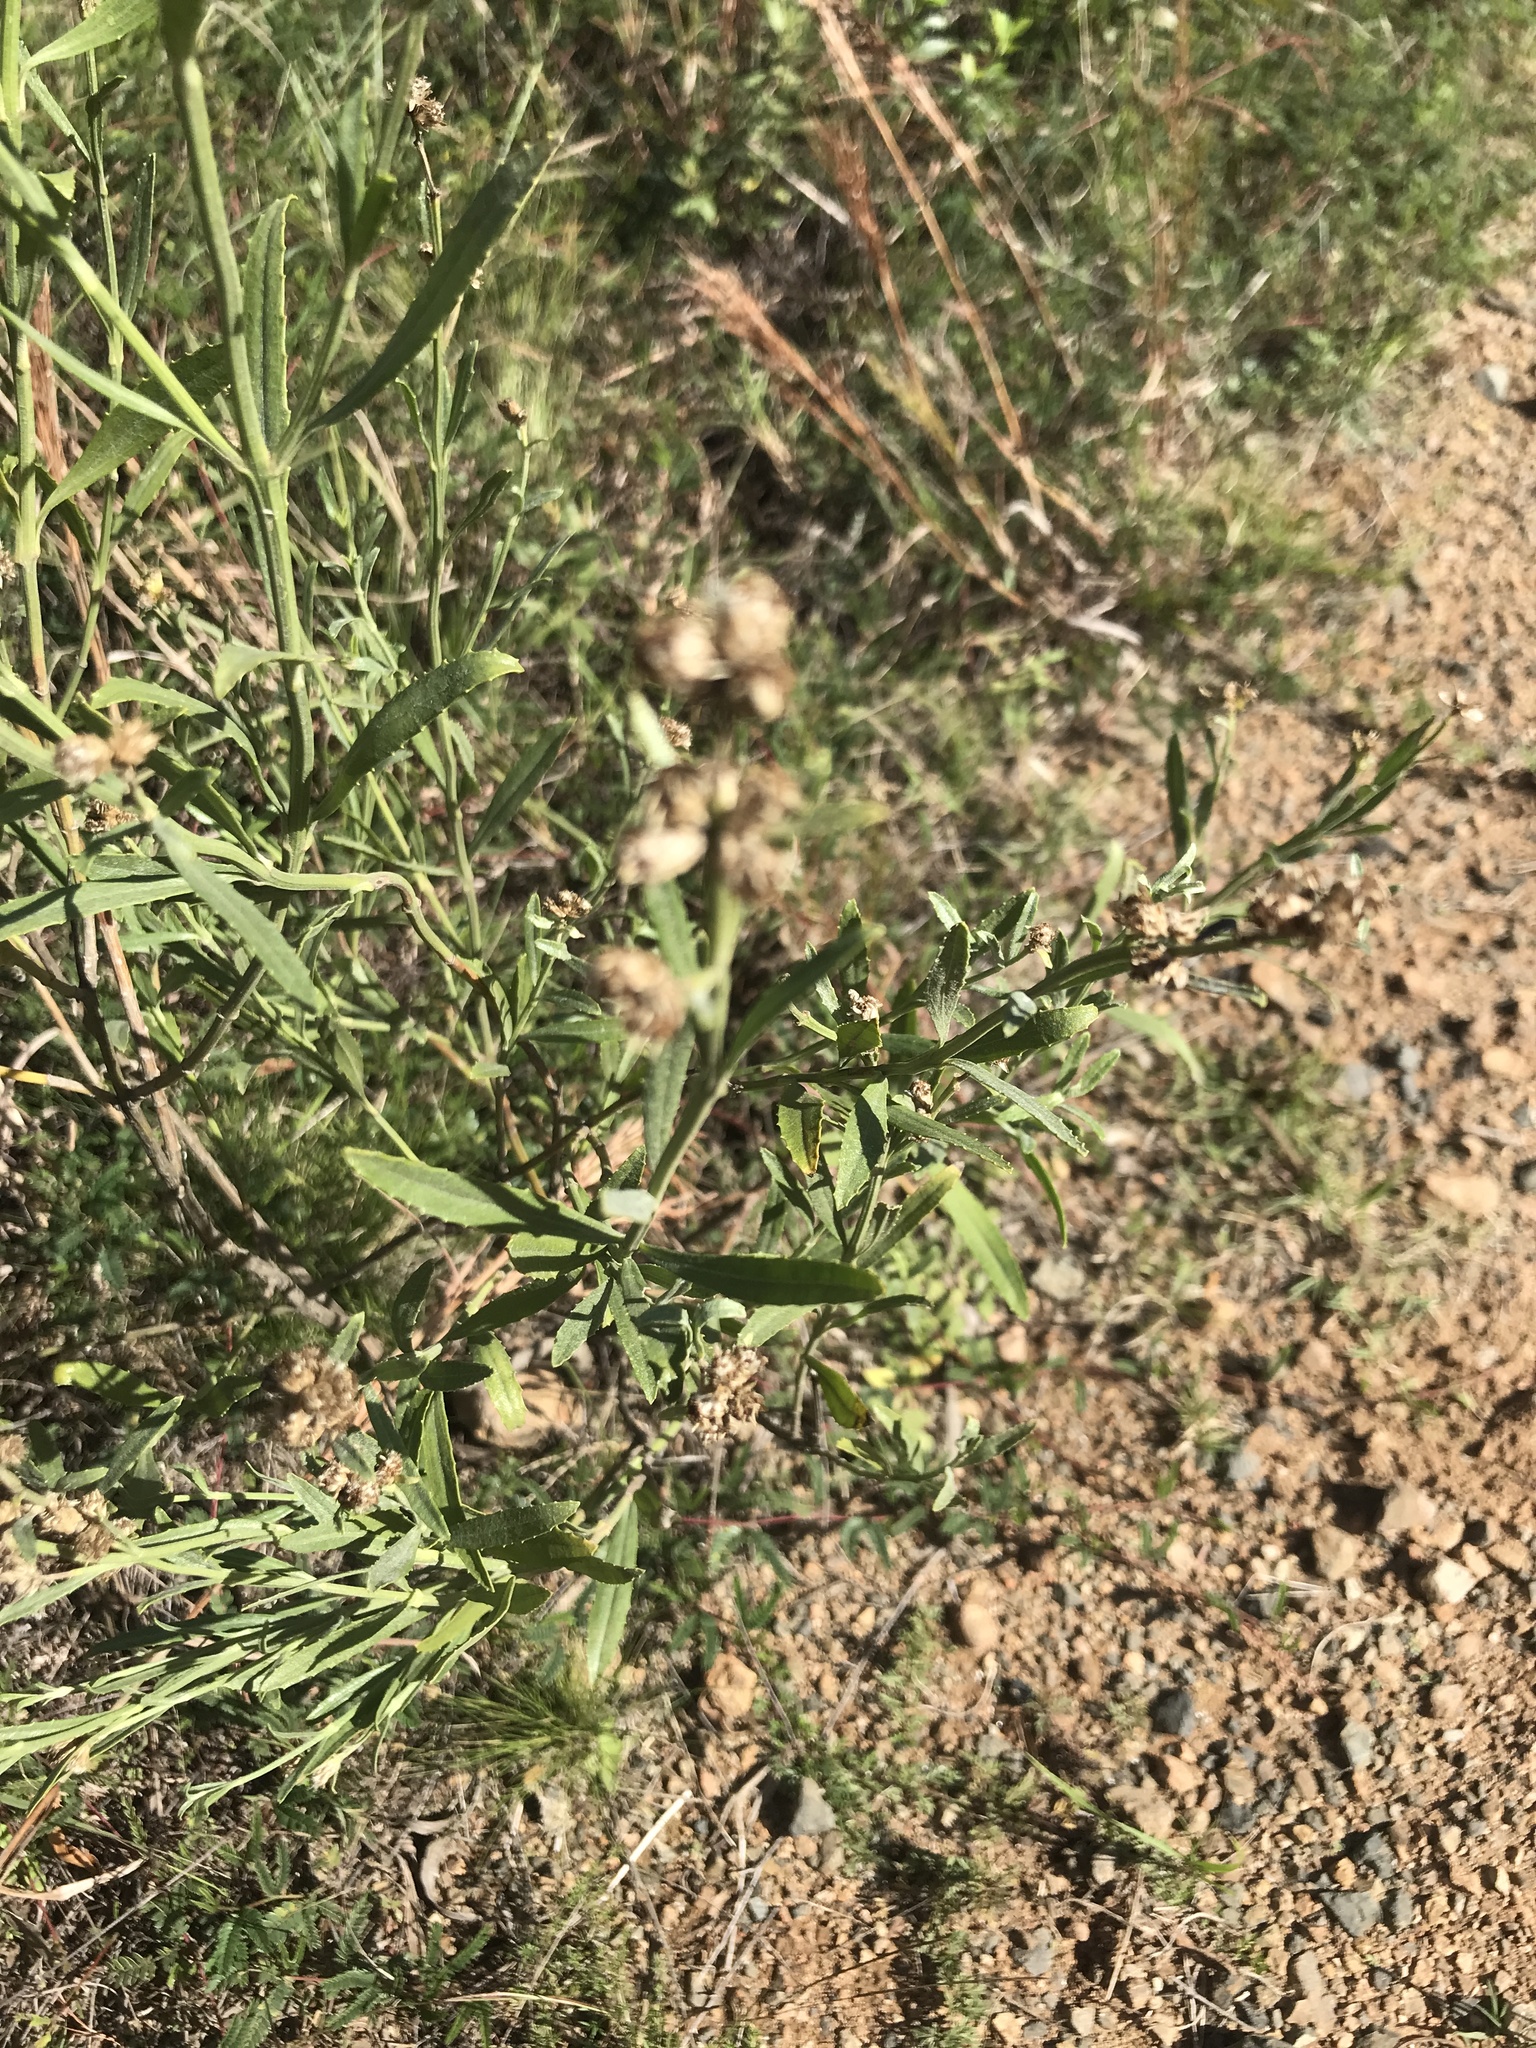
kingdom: Plantae
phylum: Tracheophyta
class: Magnoliopsida
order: Asterales
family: Asteraceae
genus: Baccharis
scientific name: Baccharis spicata
